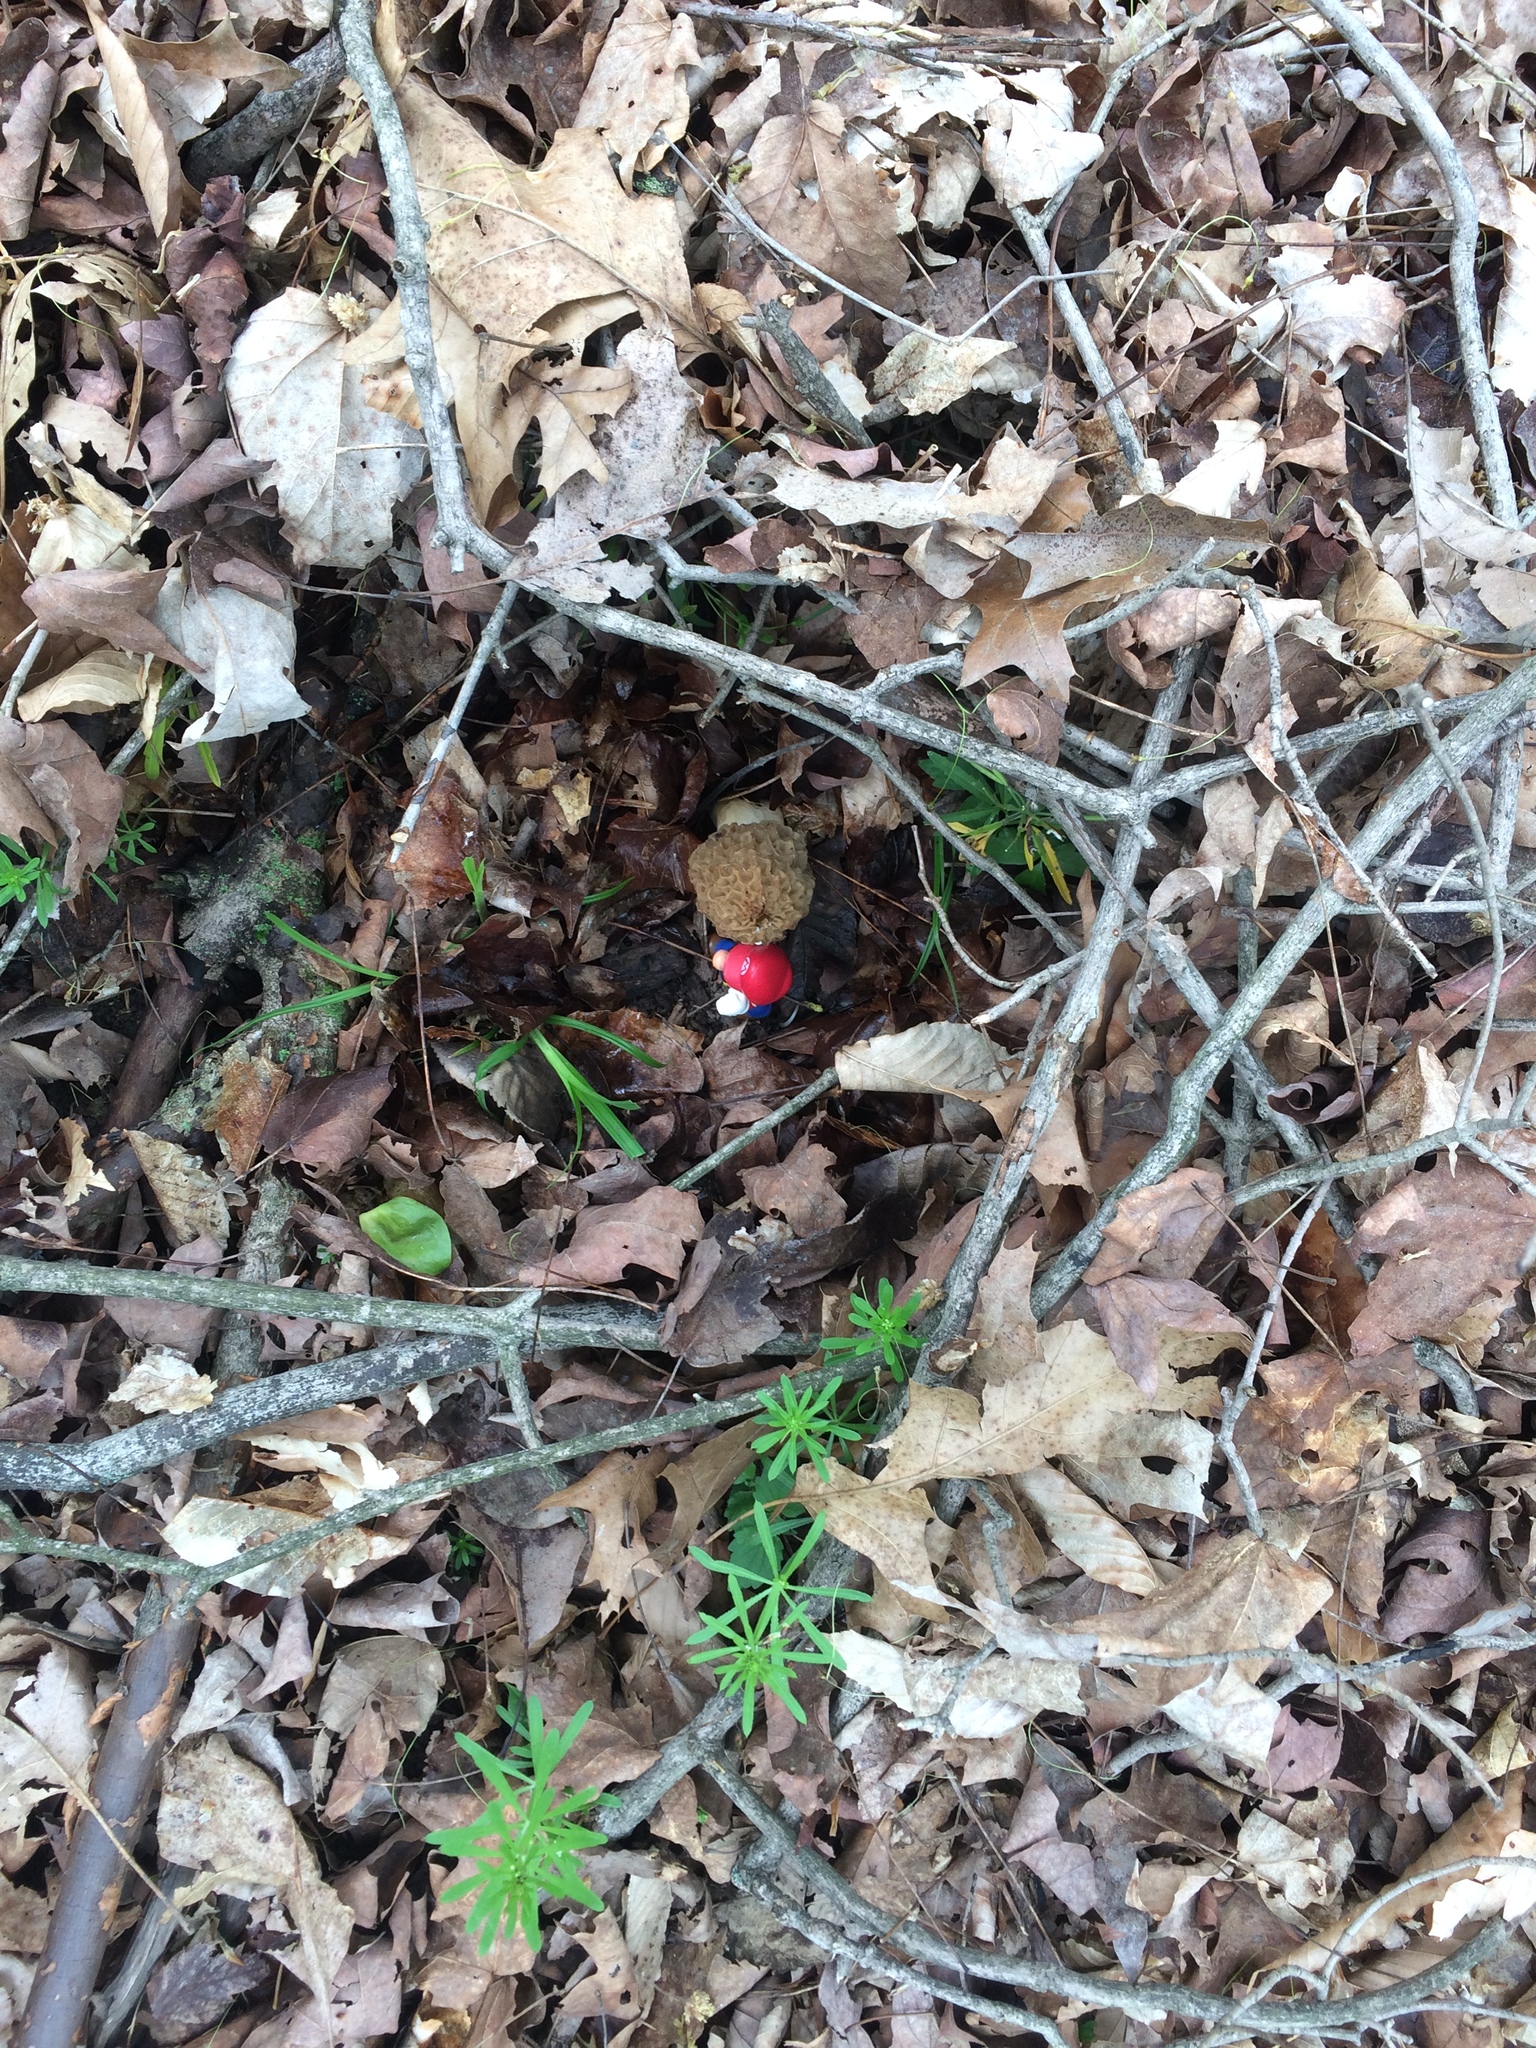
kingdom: Fungi
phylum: Ascomycota
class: Pezizomycetes
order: Pezizales
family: Morchellaceae
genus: Morchella
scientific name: Morchella americana
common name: White morel
